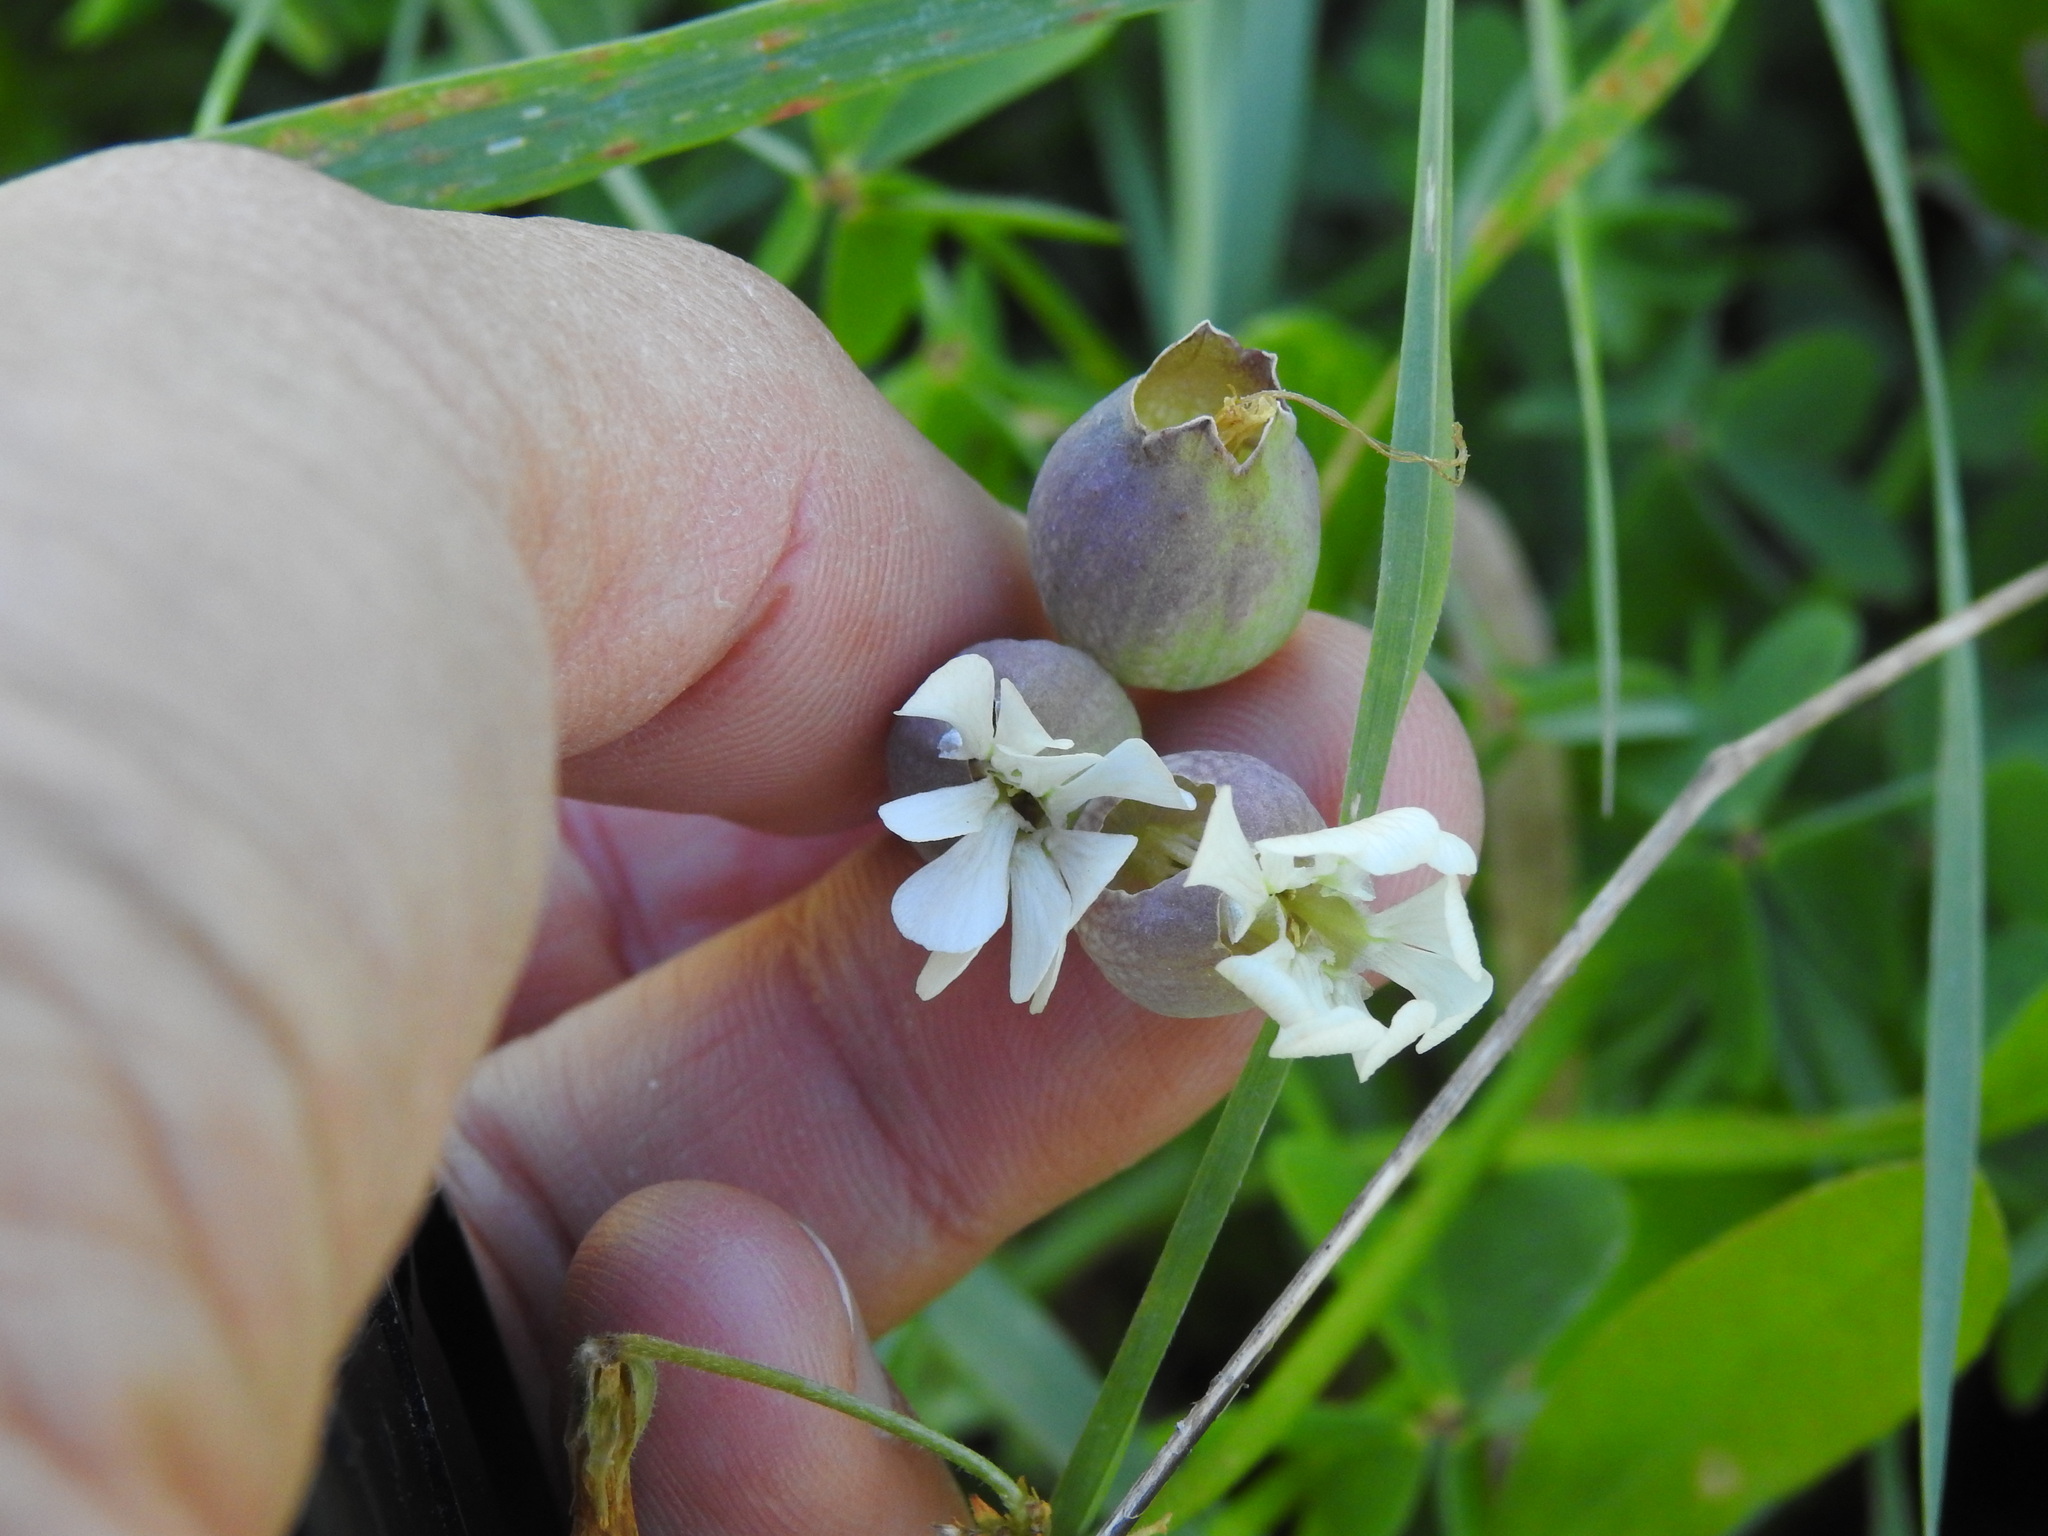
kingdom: Plantae
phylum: Tracheophyta
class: Magnoliopsida
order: Caryophyllales
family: Caryophyllaceae
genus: Silene
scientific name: Silene vulgaris
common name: Bladder campion
